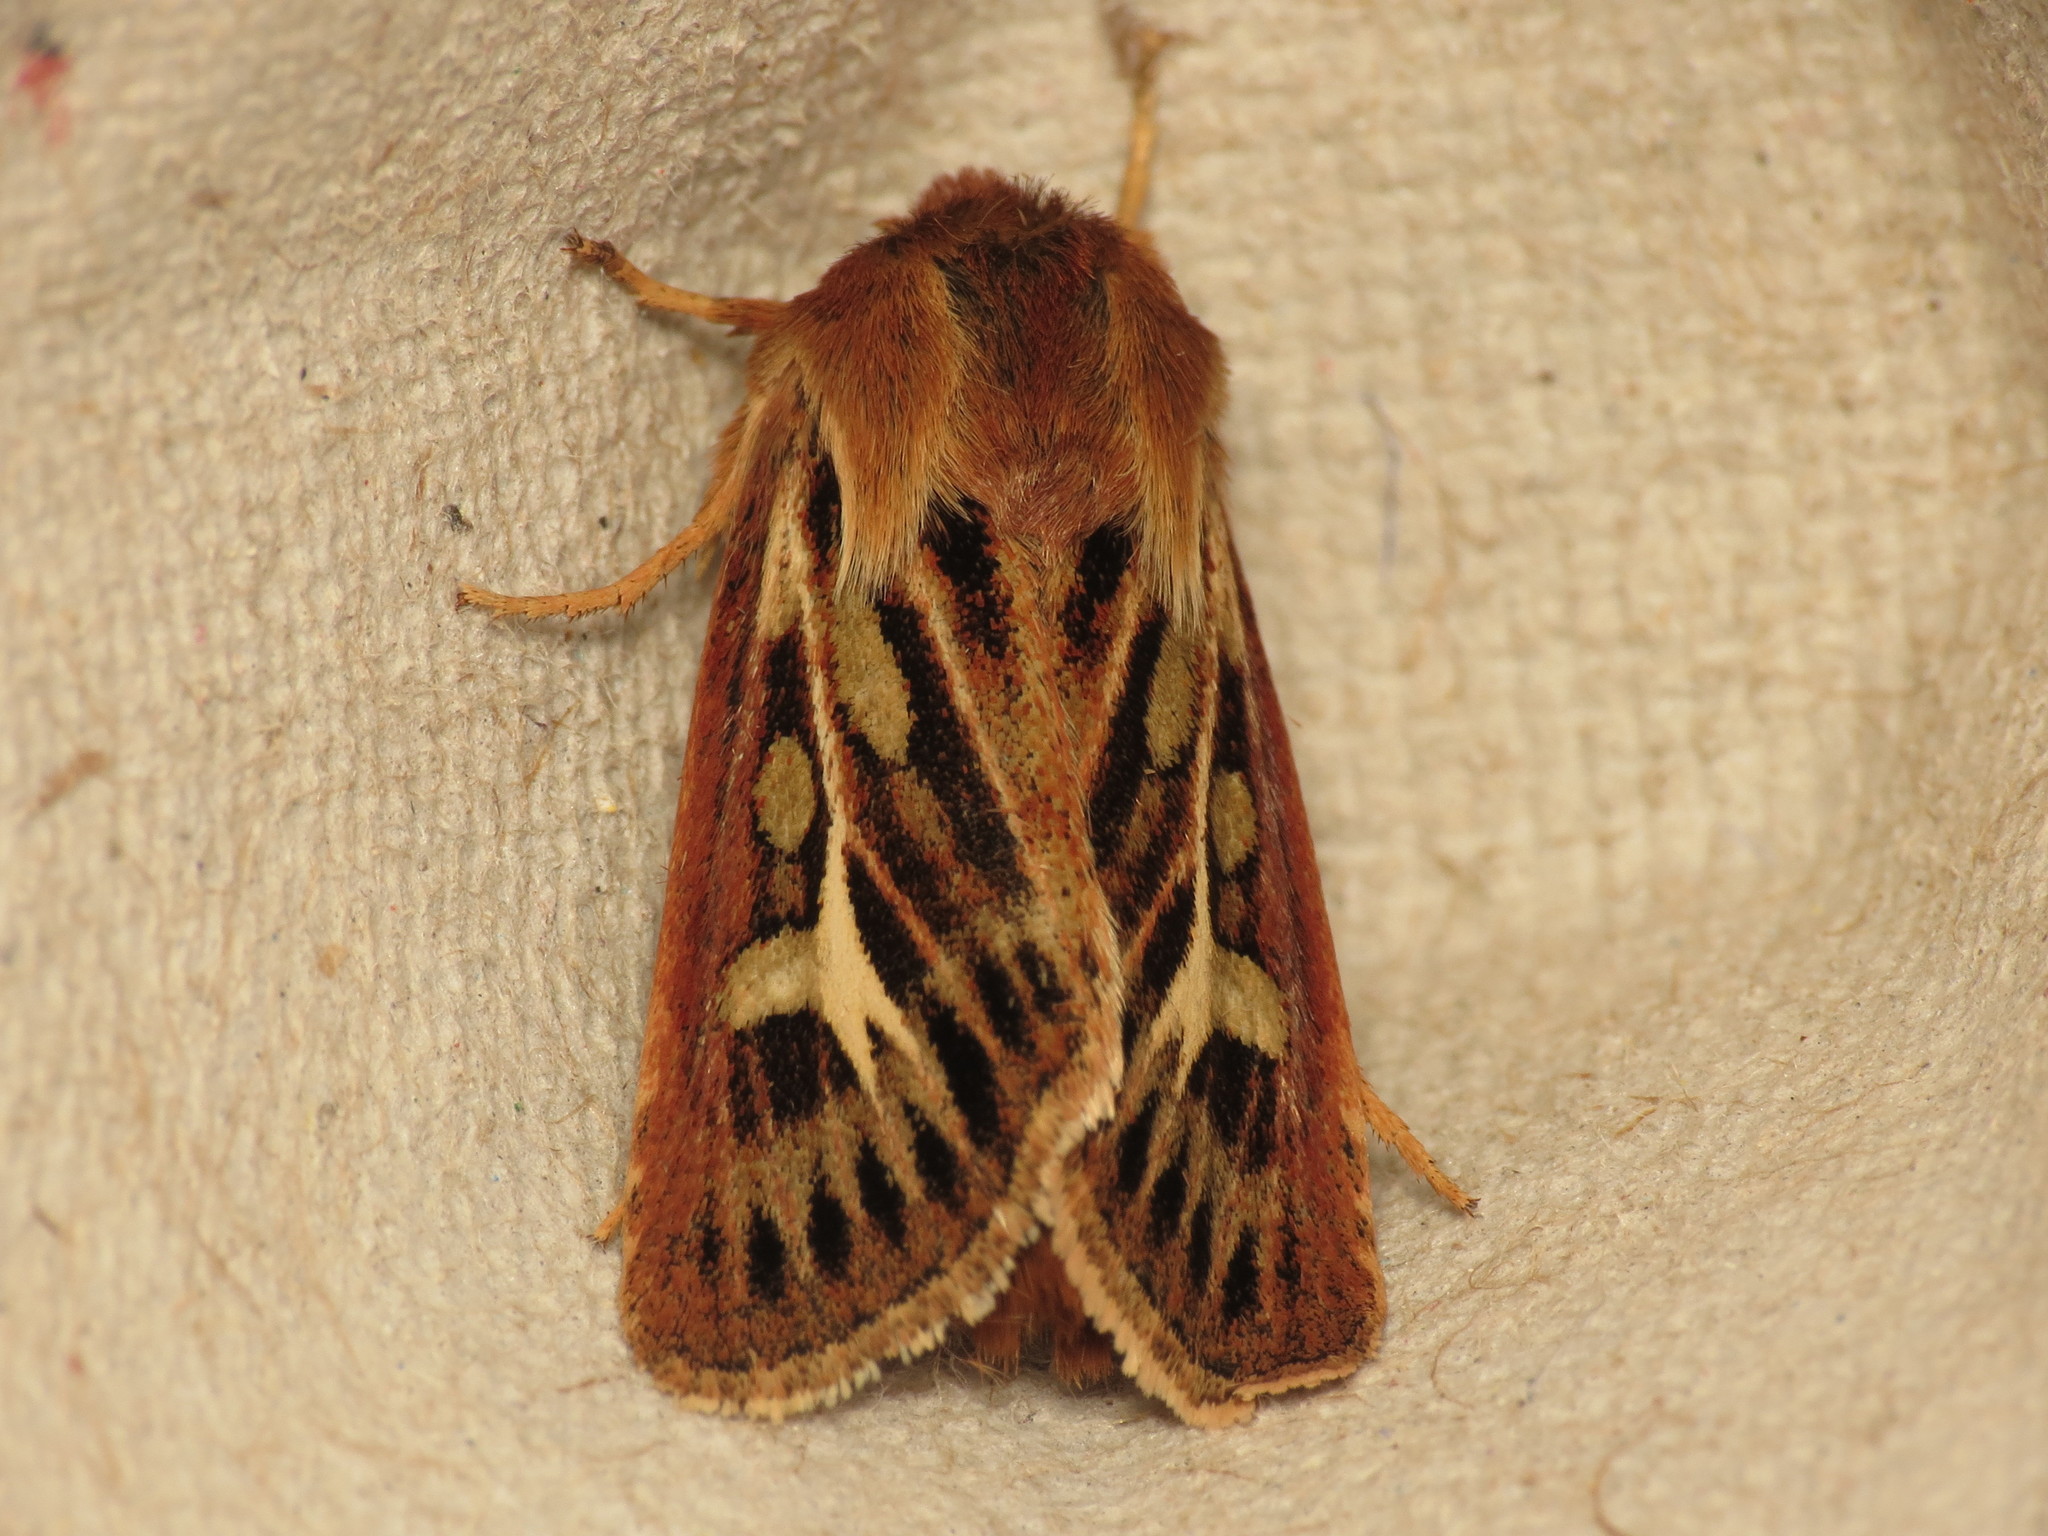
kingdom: Animalia
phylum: Arthropoda
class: Insecta
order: Lepidoptera
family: Noctuidae
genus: Cerapteryx
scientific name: Cerapteryx graminis
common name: Antler moth
